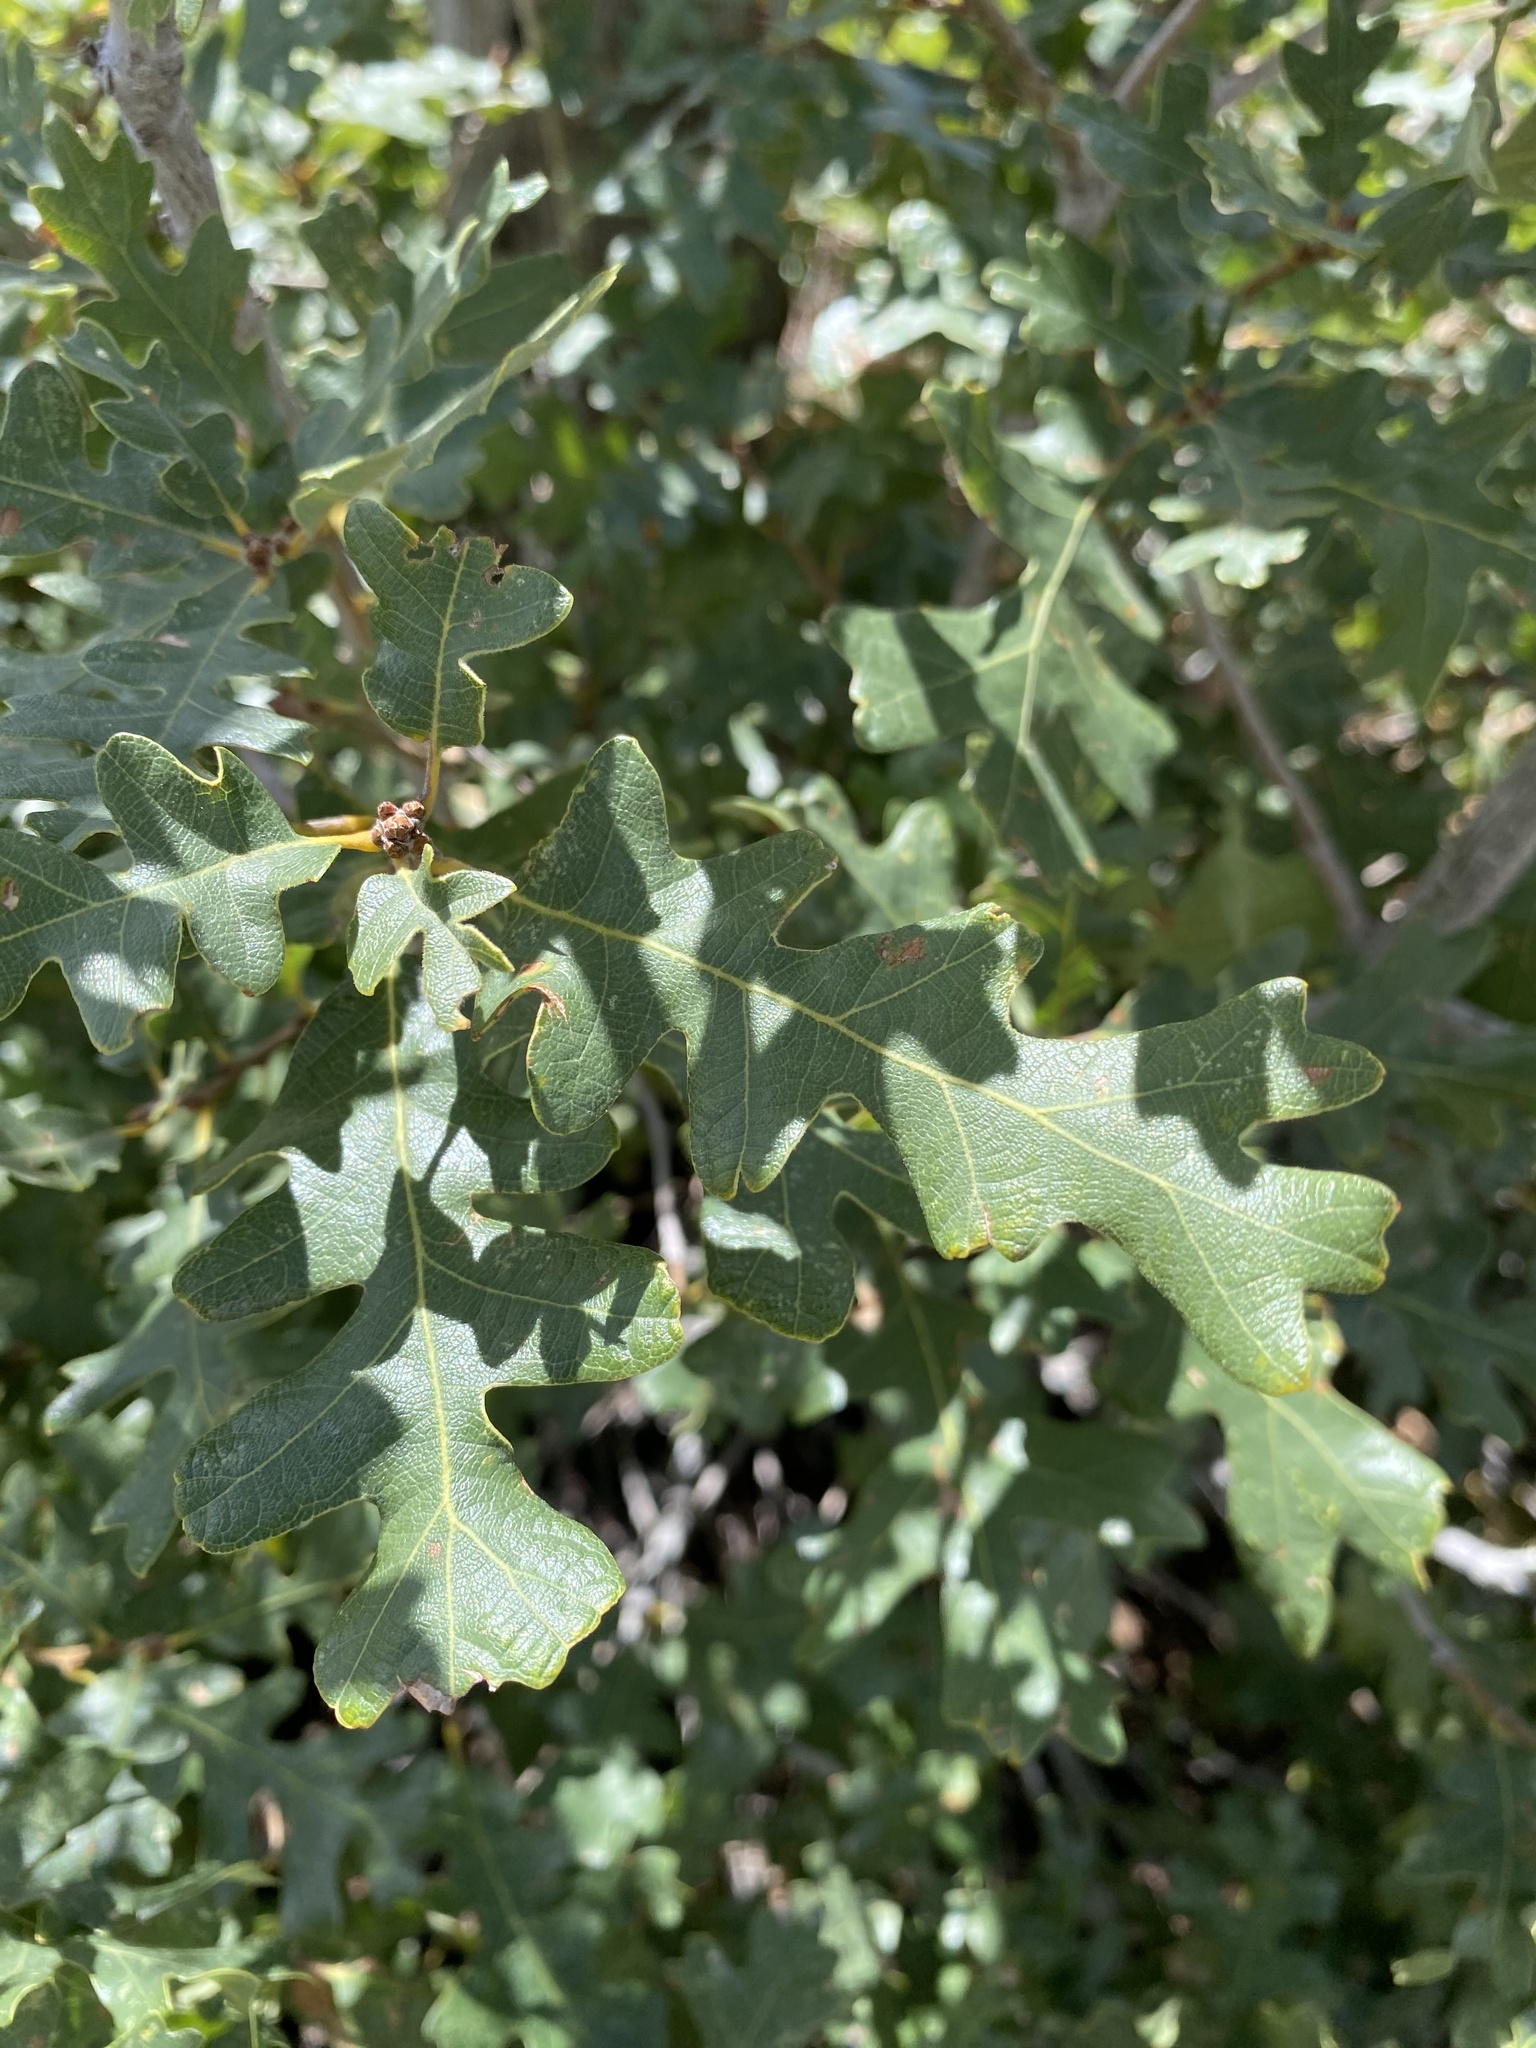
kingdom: Plantae
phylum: Tracheophyta
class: Magnoliopsida
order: Fagales
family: Fagaceae
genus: Quercus
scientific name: Quercus gambelii
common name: Gambel oak
